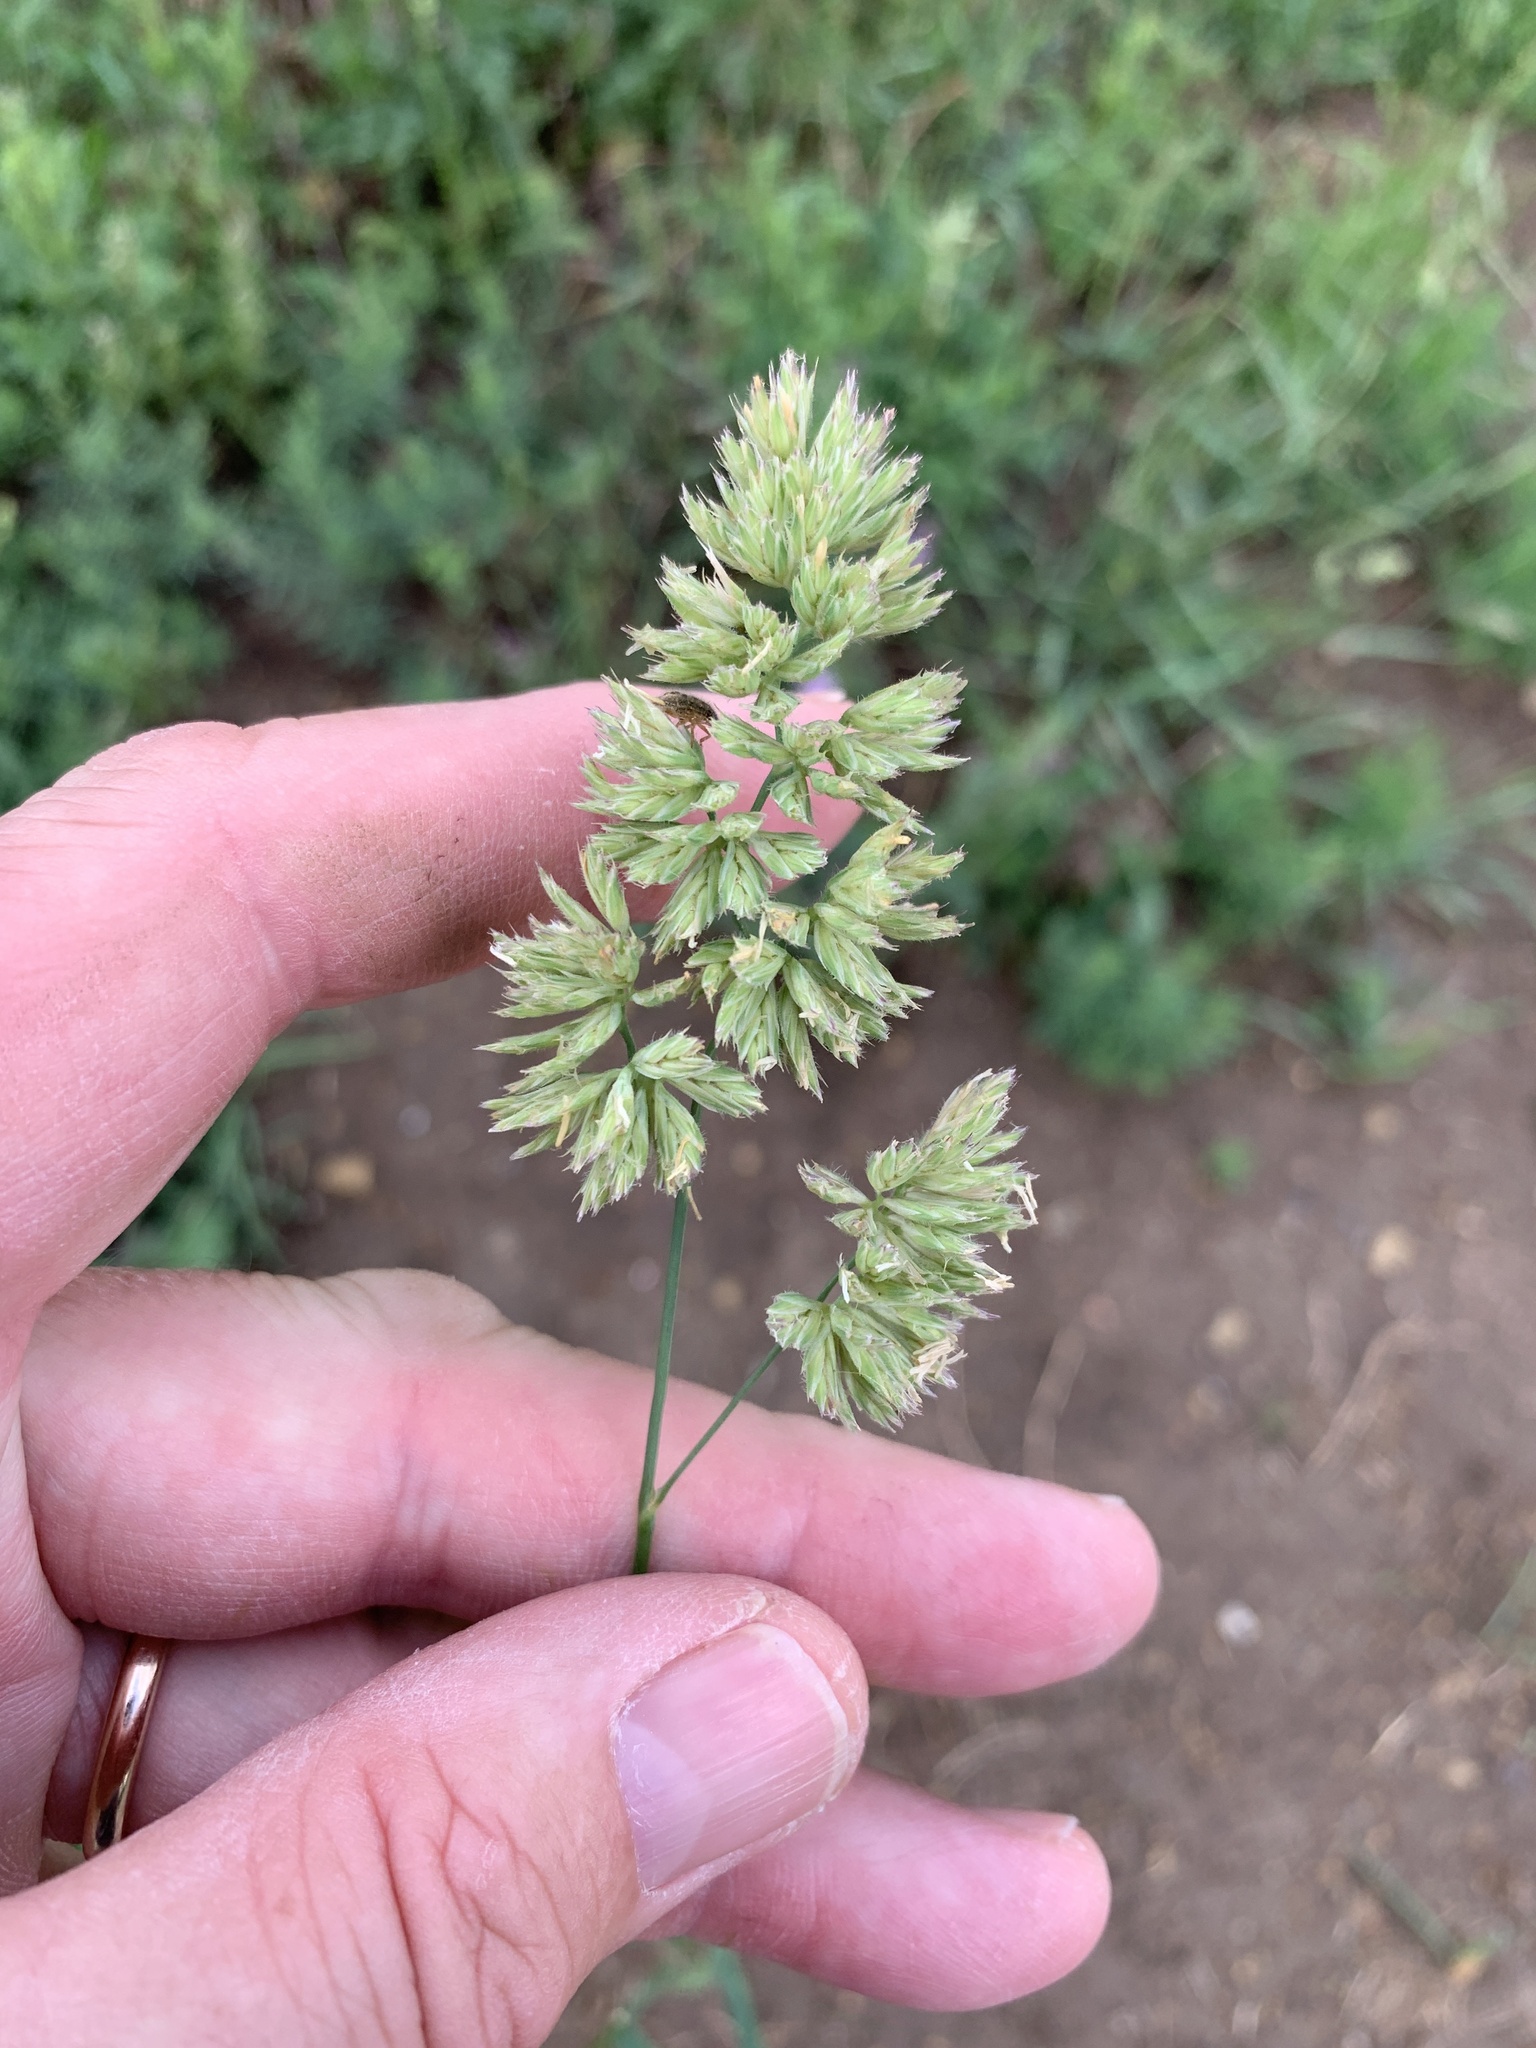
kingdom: Plantae
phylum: Tracheophyta
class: Liliopsida
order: Poales
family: Poaceae
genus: Dactylis
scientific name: Dactylis glomerata
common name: Orchardgrass
